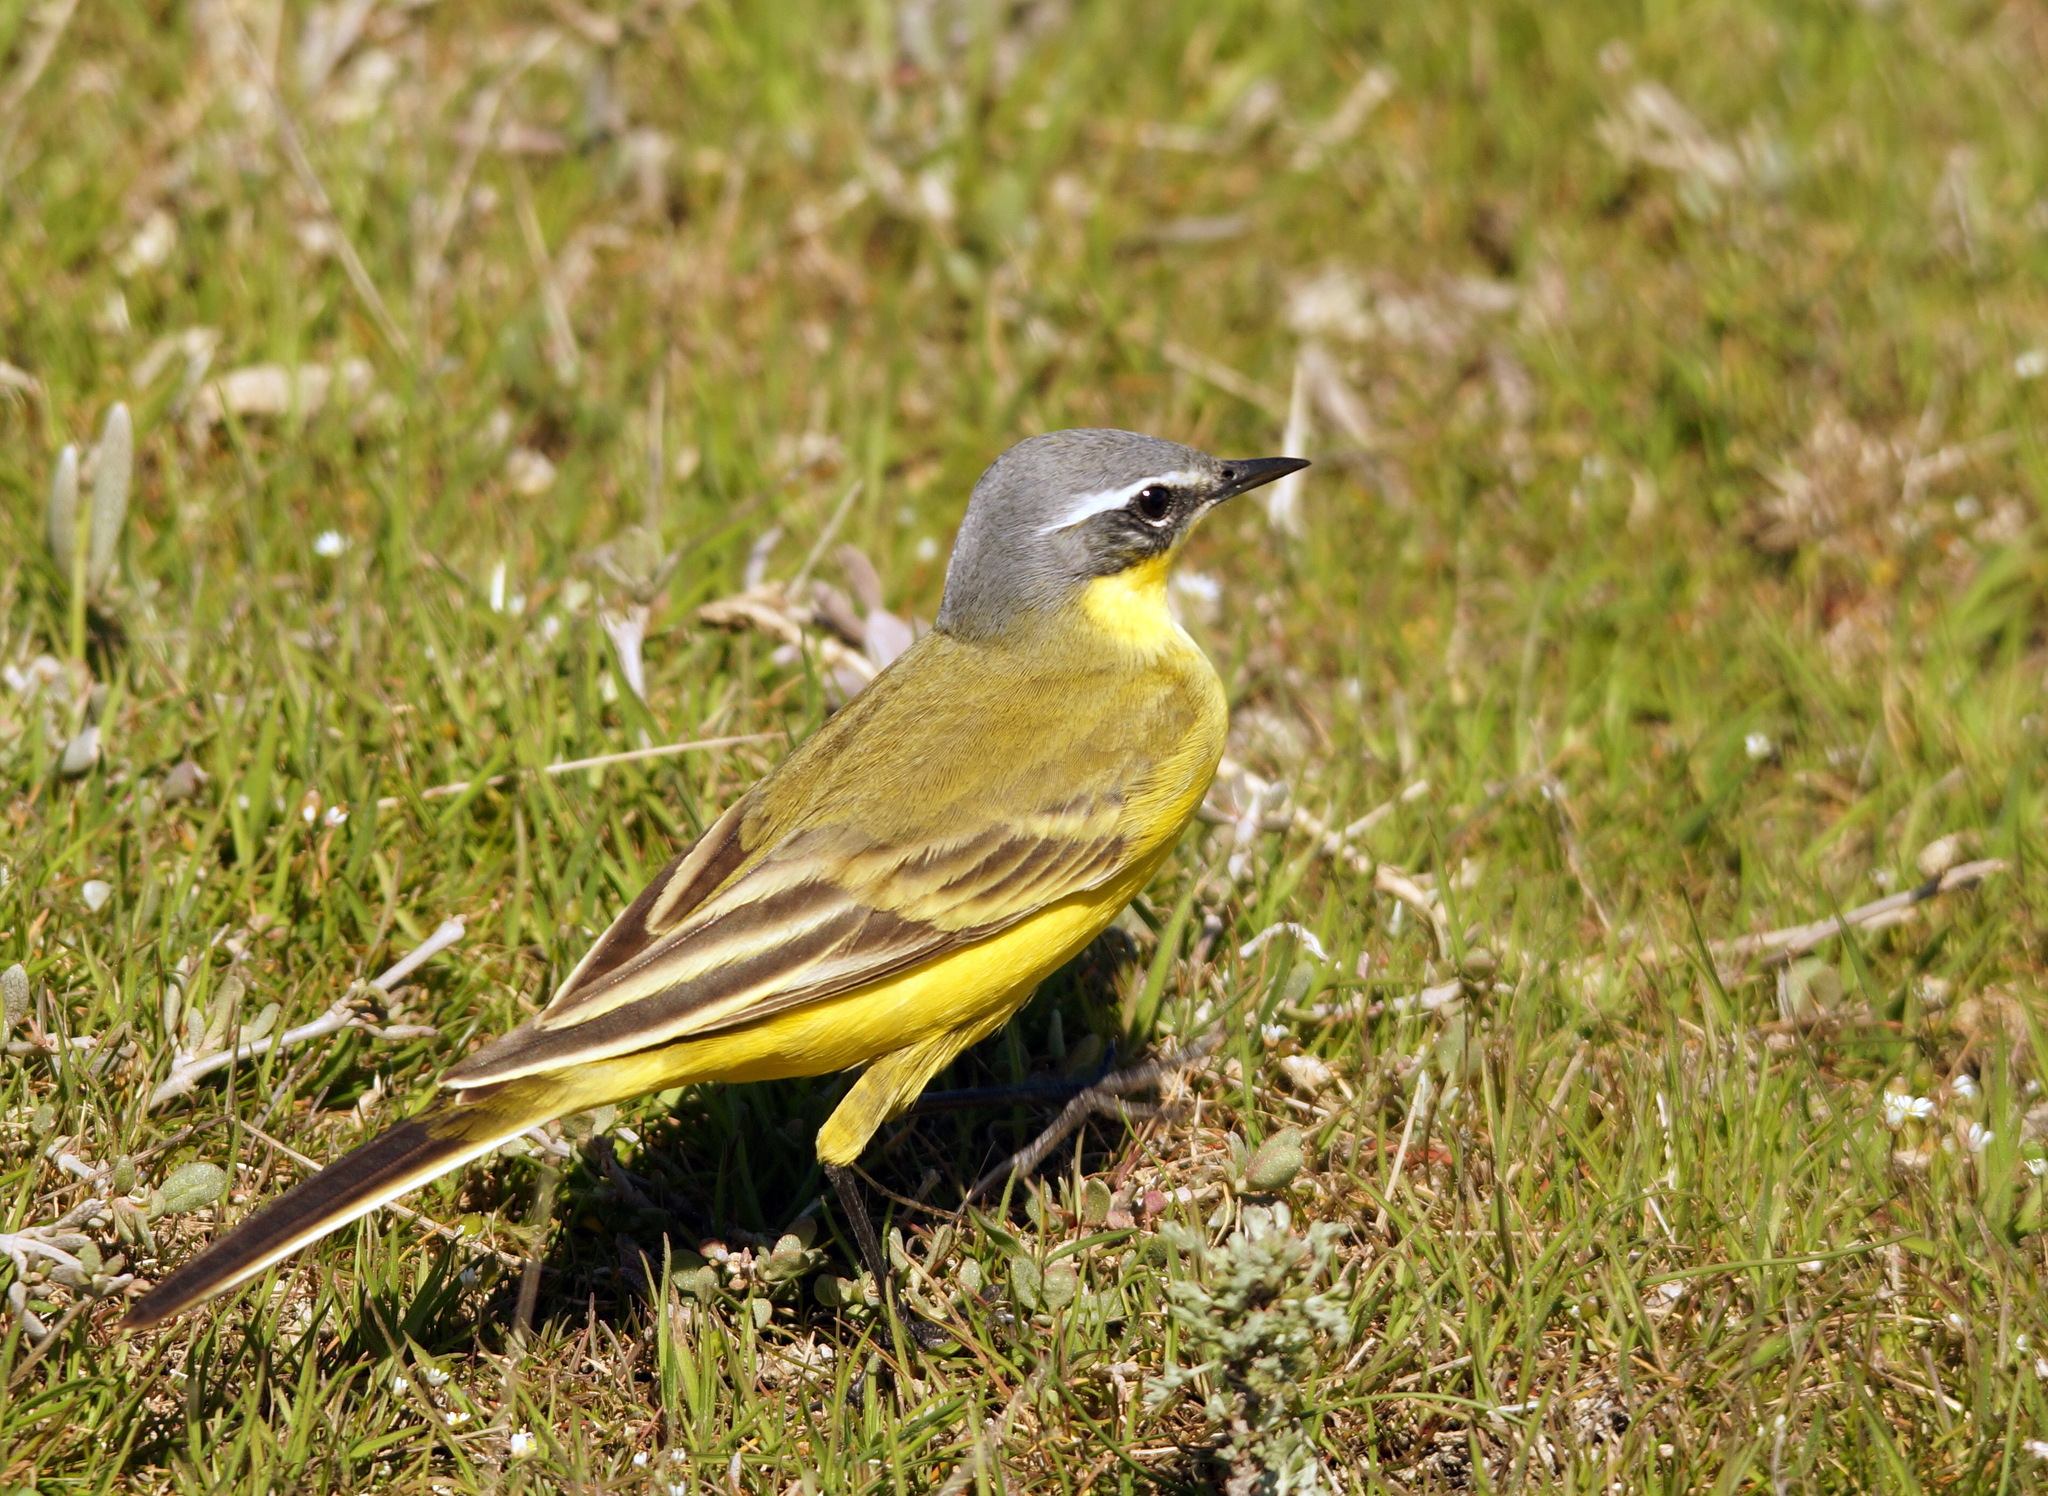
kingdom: Animalia
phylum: Chordata
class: Aves
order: Passeriformes
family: Motacillidae
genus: Motacilla
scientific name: Motacilla flava
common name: Western yellow wagtail
